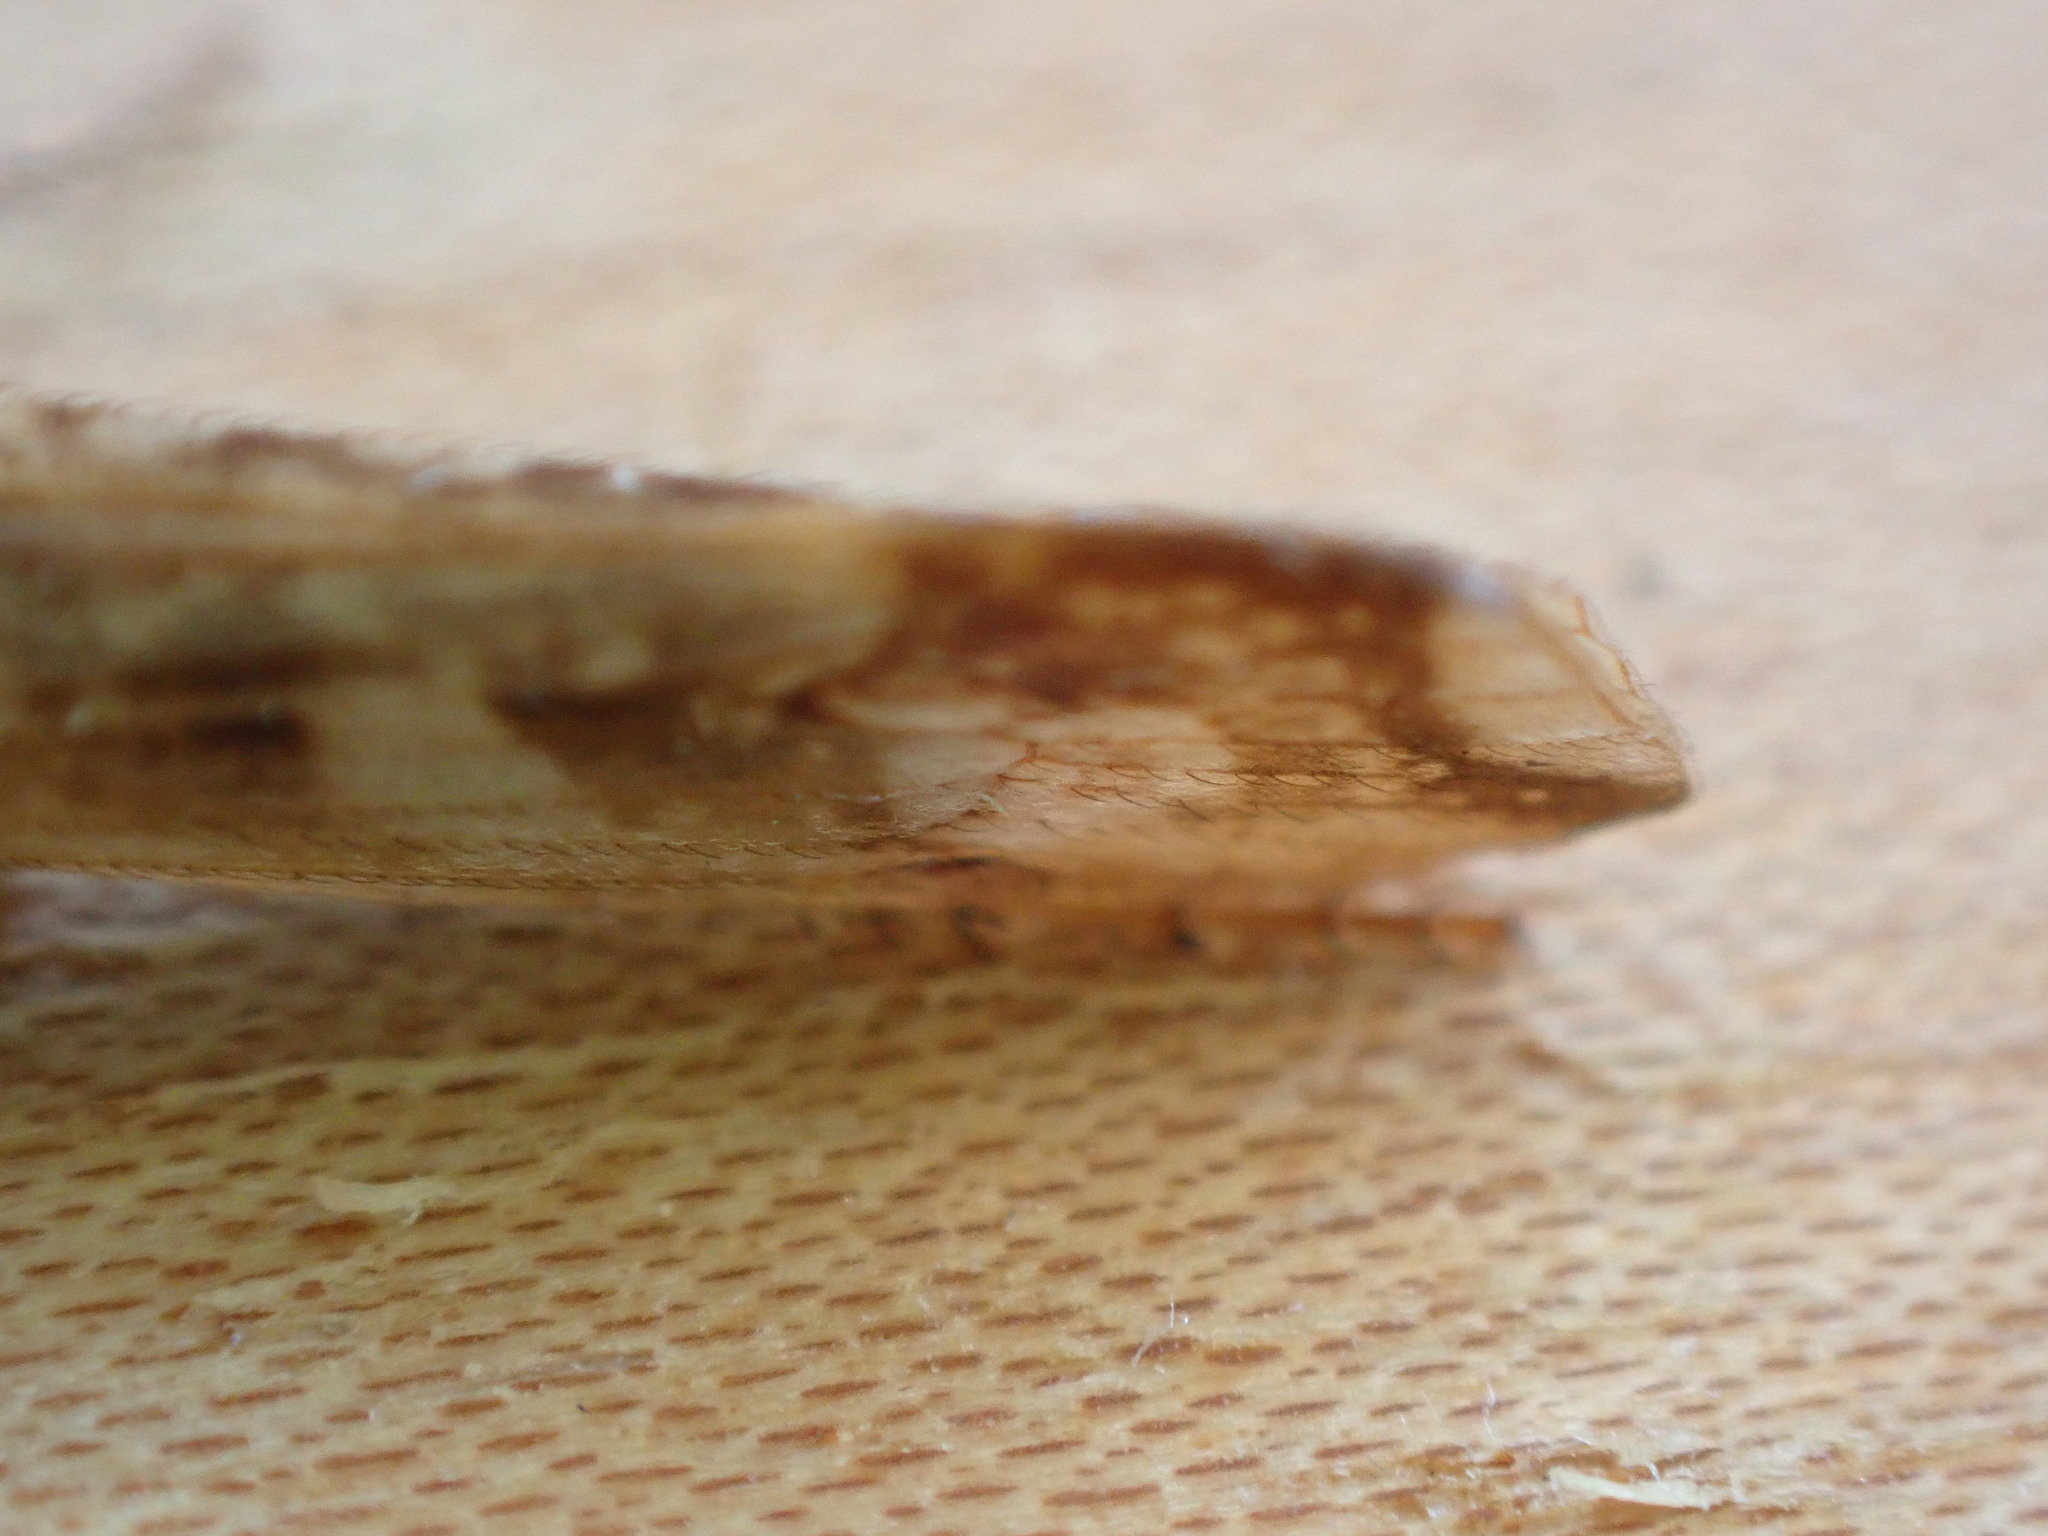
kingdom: Animalia
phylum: Arthropoda
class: Insecta
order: Trichoptera
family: Limnephilidae
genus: Limnephilus
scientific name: Limnephilus lunatus
